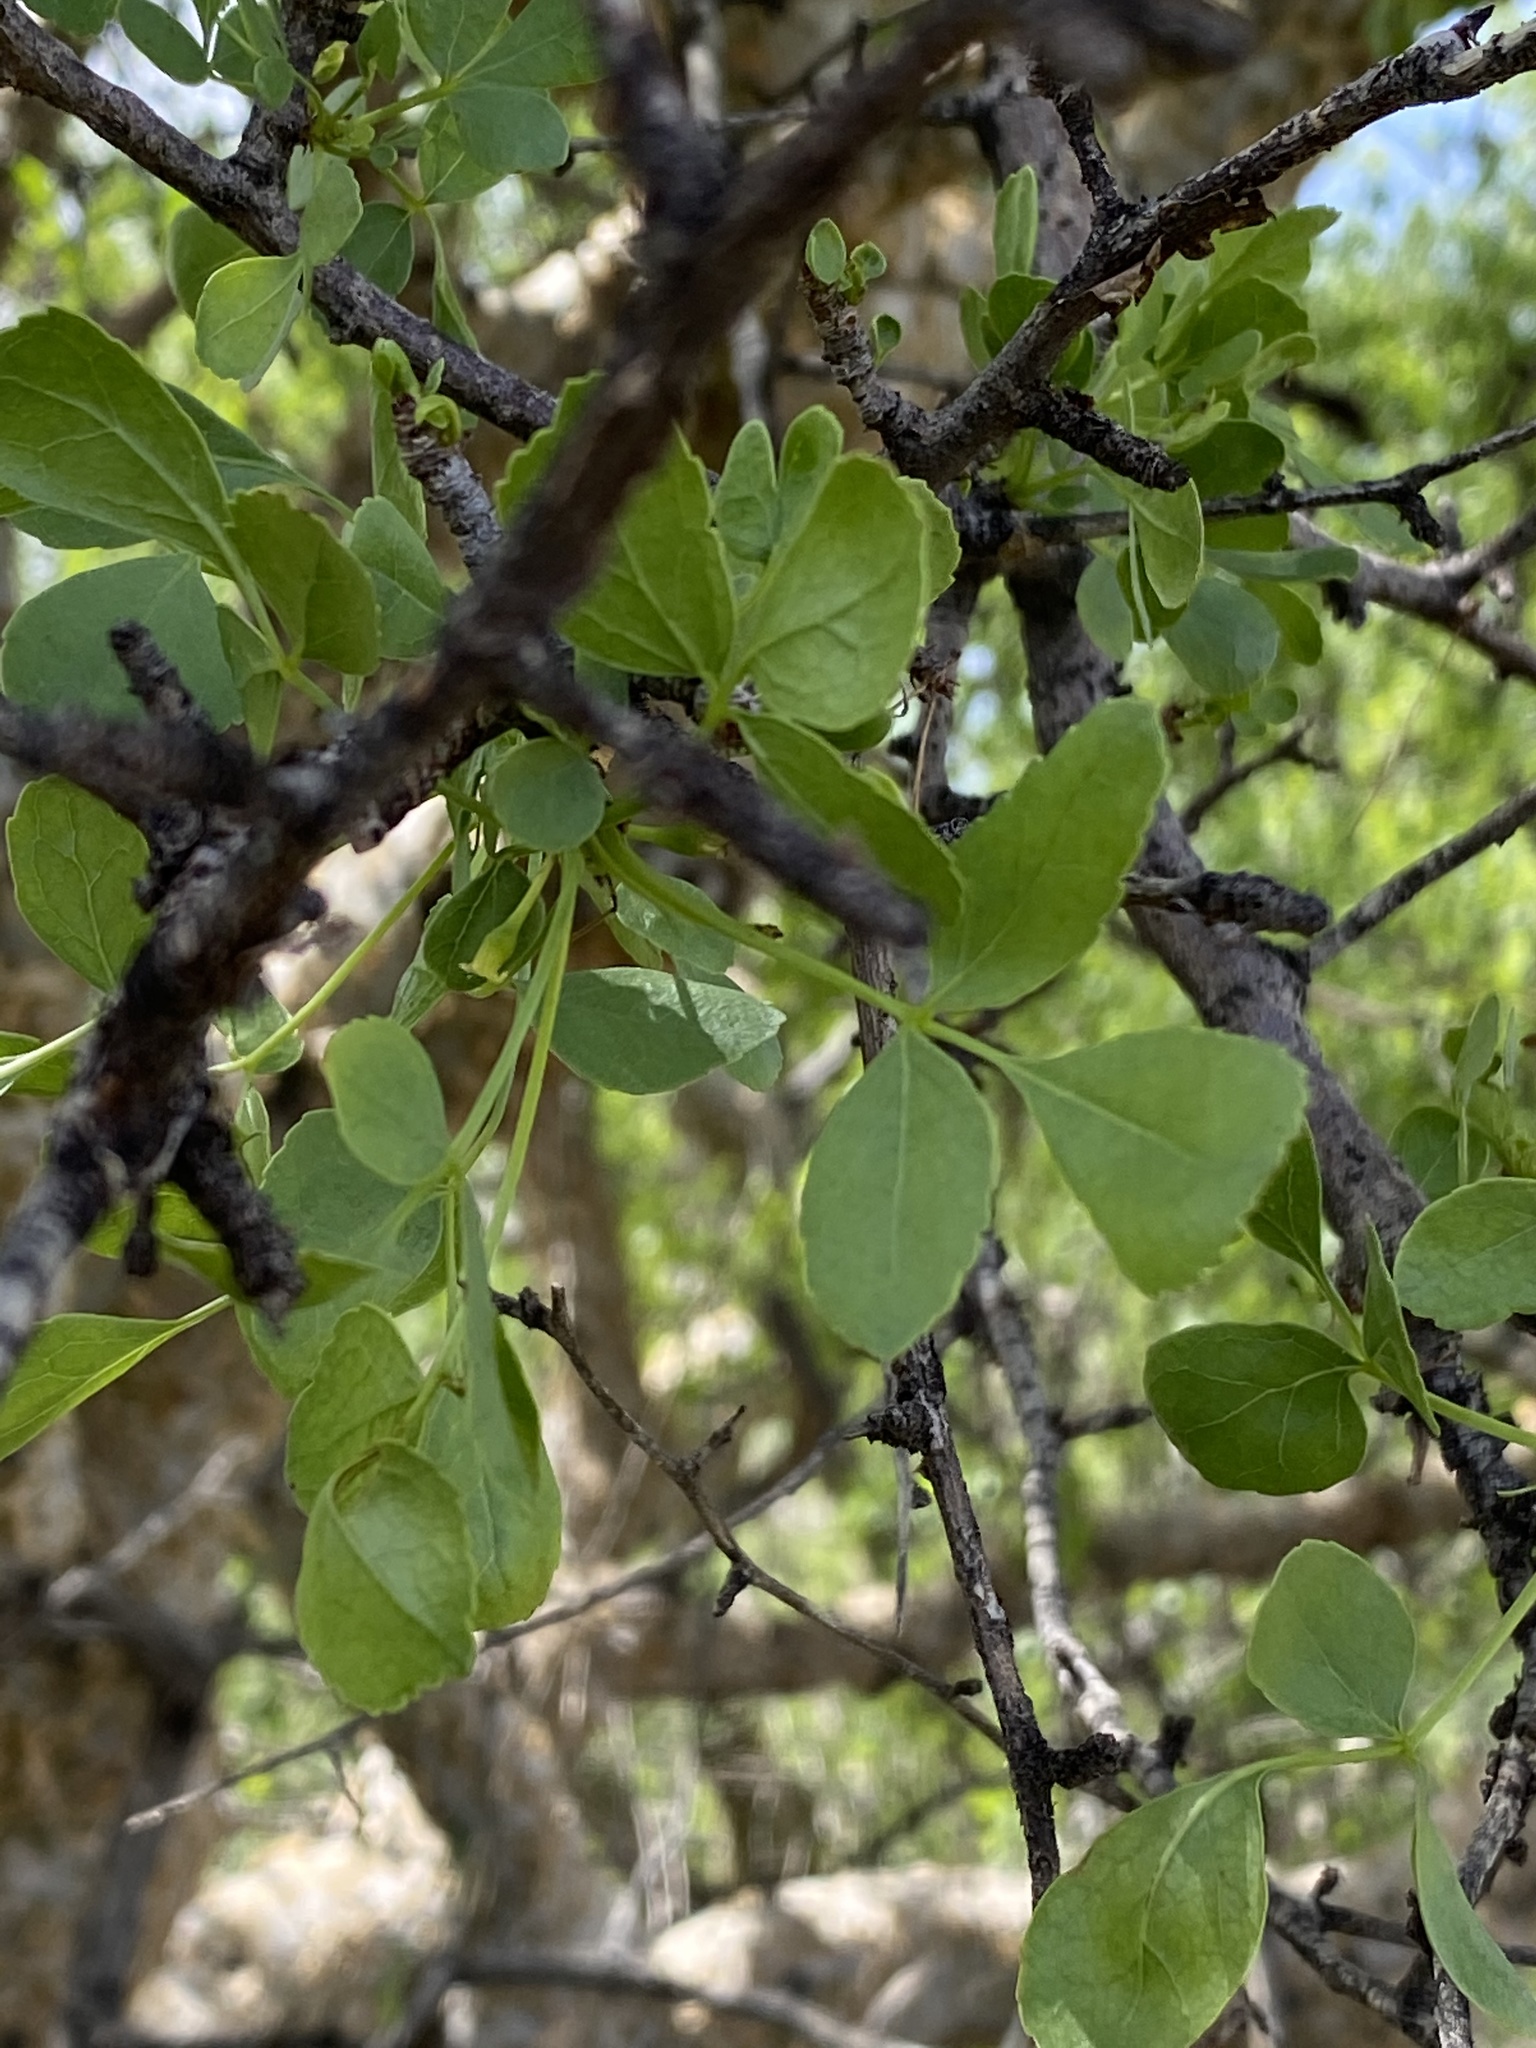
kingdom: Plantae
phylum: Tracheophyta
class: Magnoliopsida
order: Sapindales
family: Burseraceae
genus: Commiphora
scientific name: Commiphora tenuipetiolata
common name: Satin-bark corkwood
